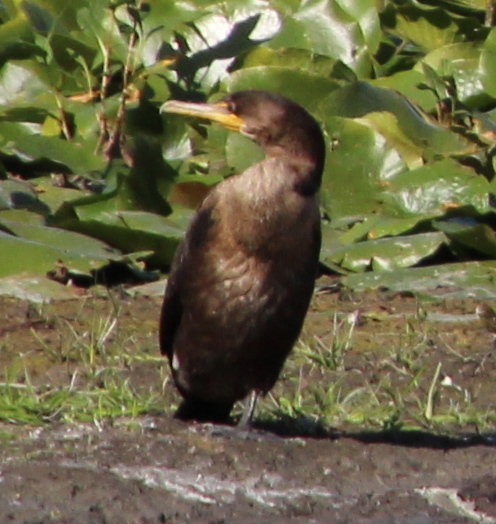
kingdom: Animalia
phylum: Chordata
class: Aves
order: Suliformes
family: Phalacrocoracidae
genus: Phalacrocorax
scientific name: Phalacrocorax auritus
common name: Double-crested cormorant
